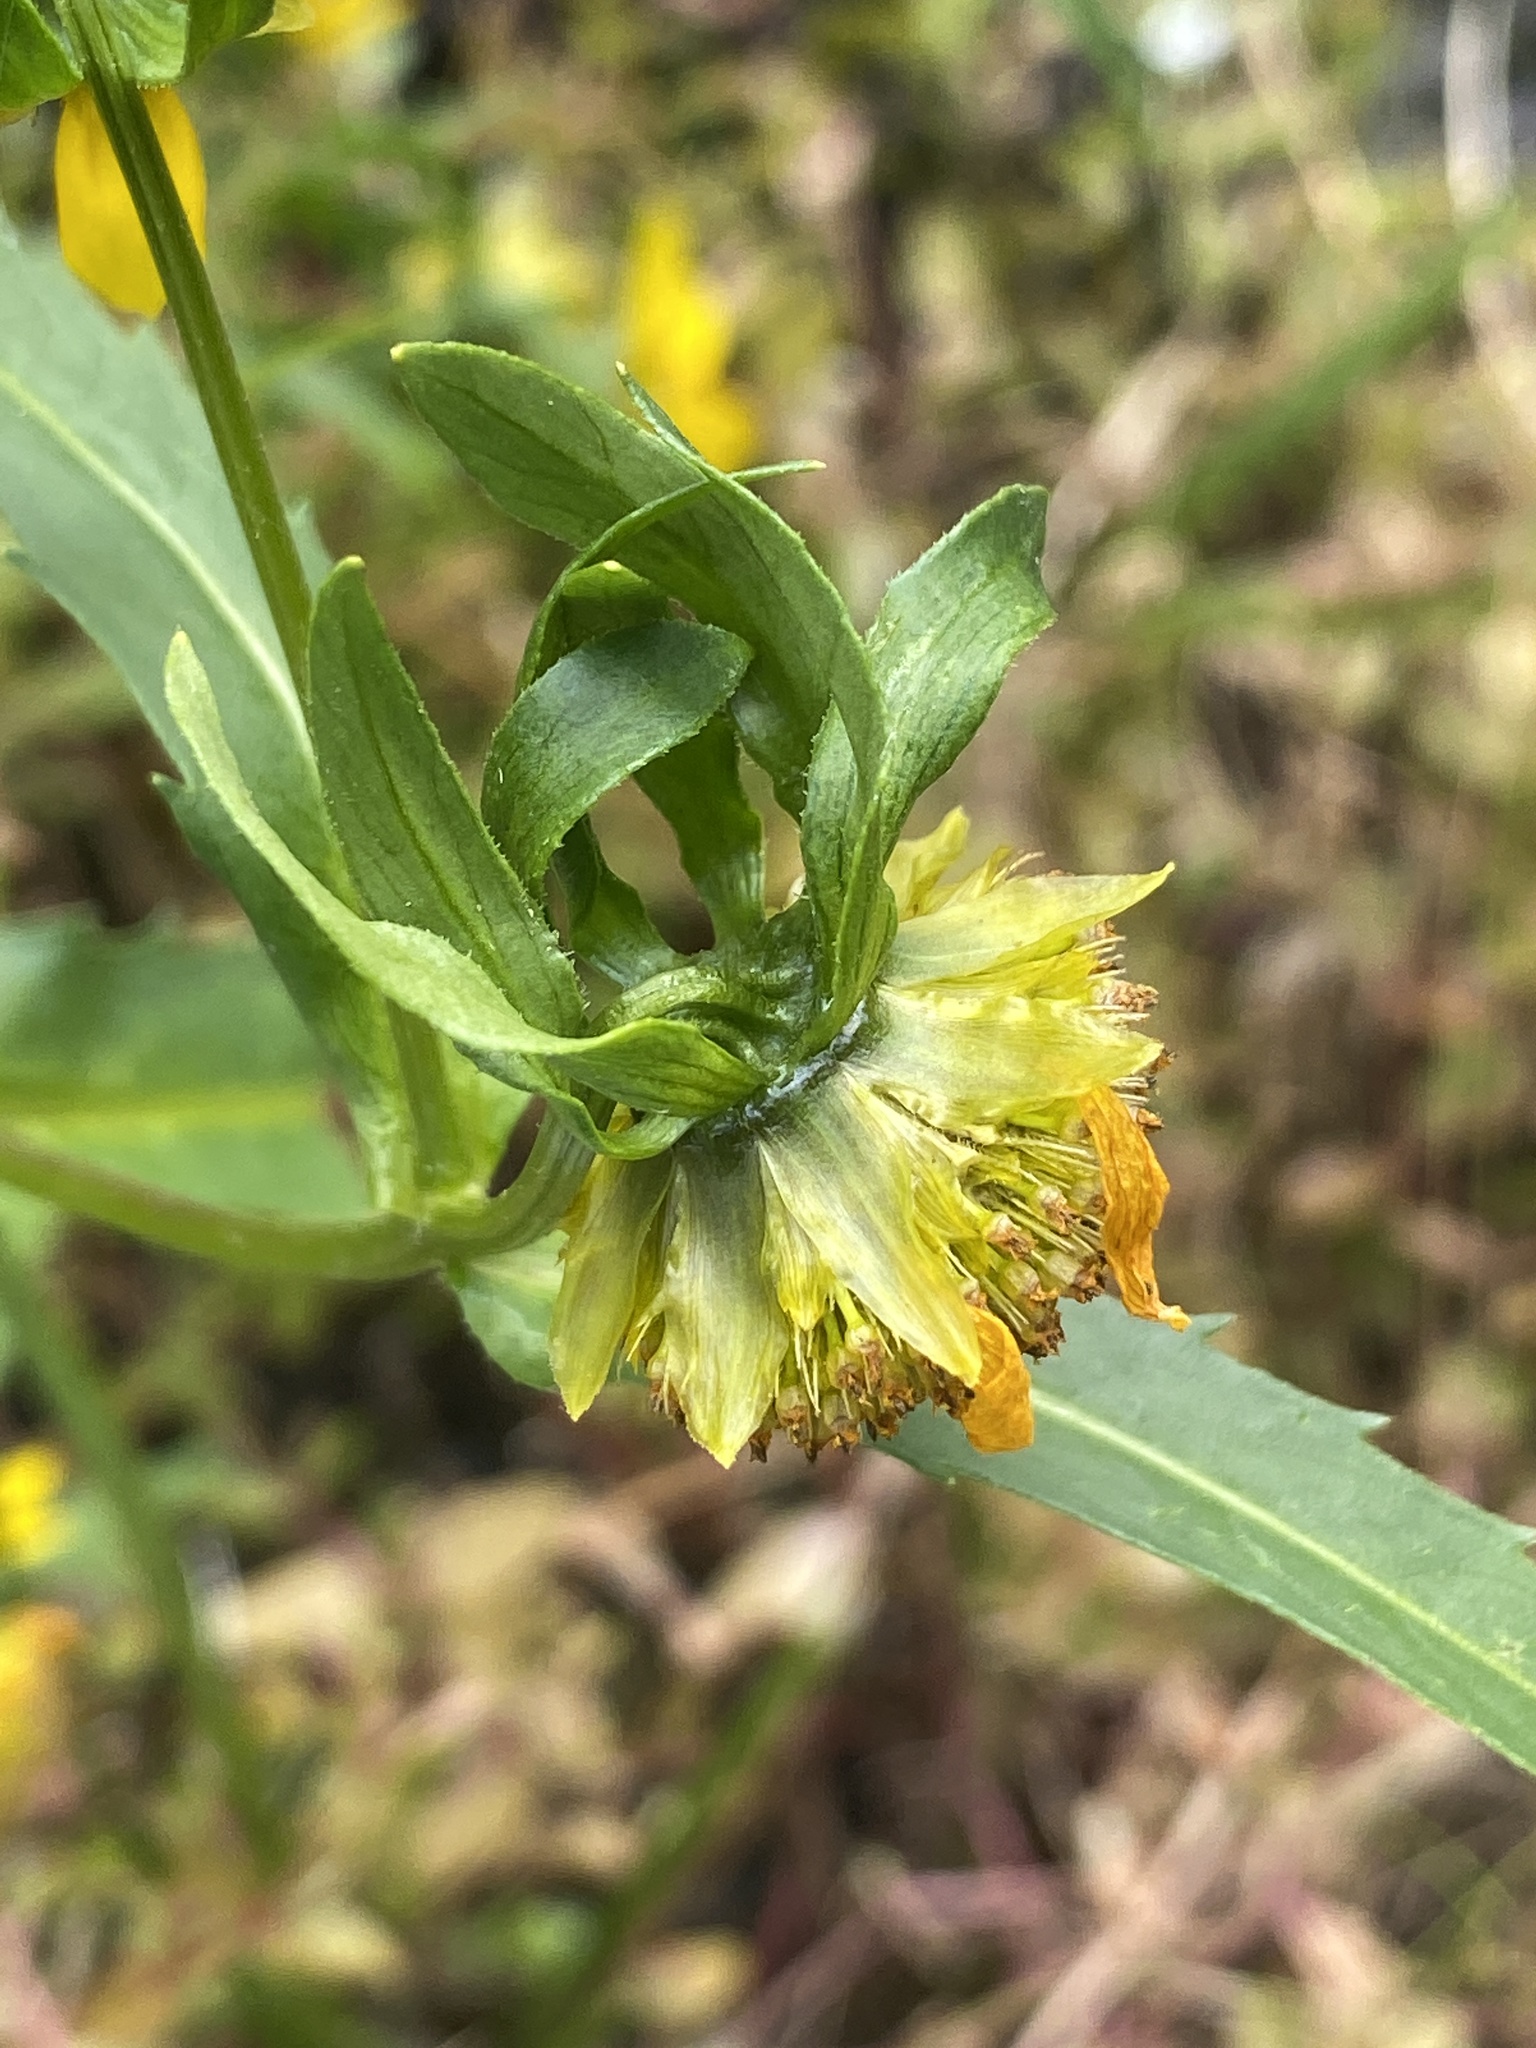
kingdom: Plantae
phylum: Tracheophyta
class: Magnoliopsida
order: Asterales
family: Asteraceae
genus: Bidens
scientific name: Bidens cernua
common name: Nodding bur-marigold
